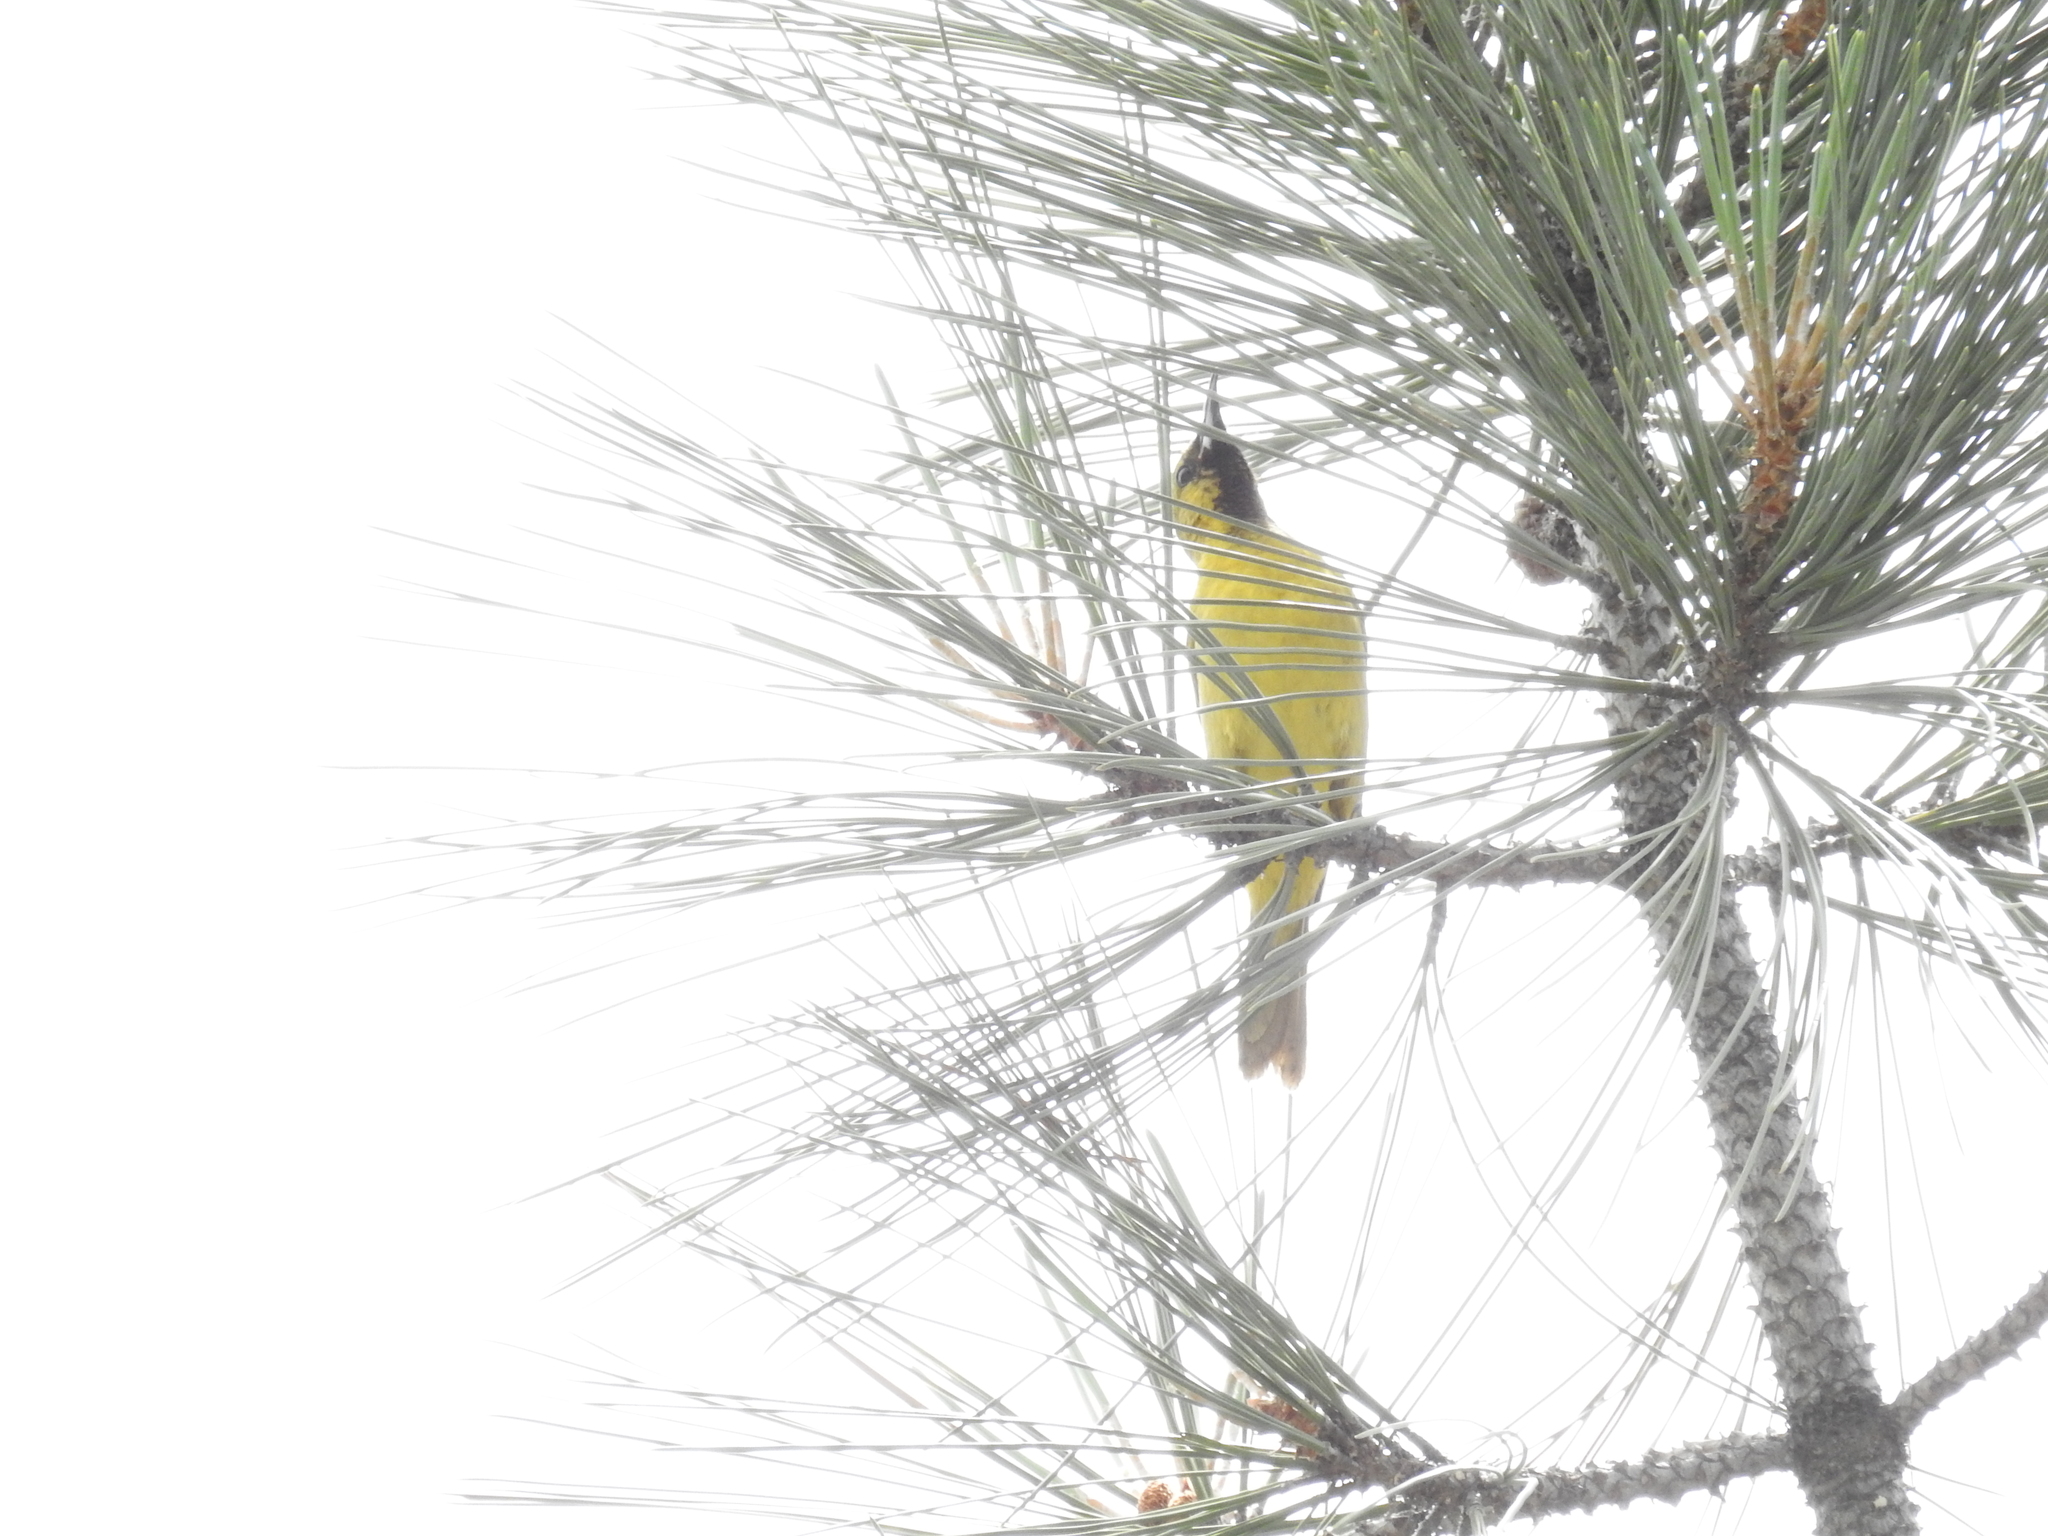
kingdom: Animalia
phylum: Chordata
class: Aves
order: Passeriformes
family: Icteridae
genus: Icterus
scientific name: Icterus cucullatus
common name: Hooded oriole
